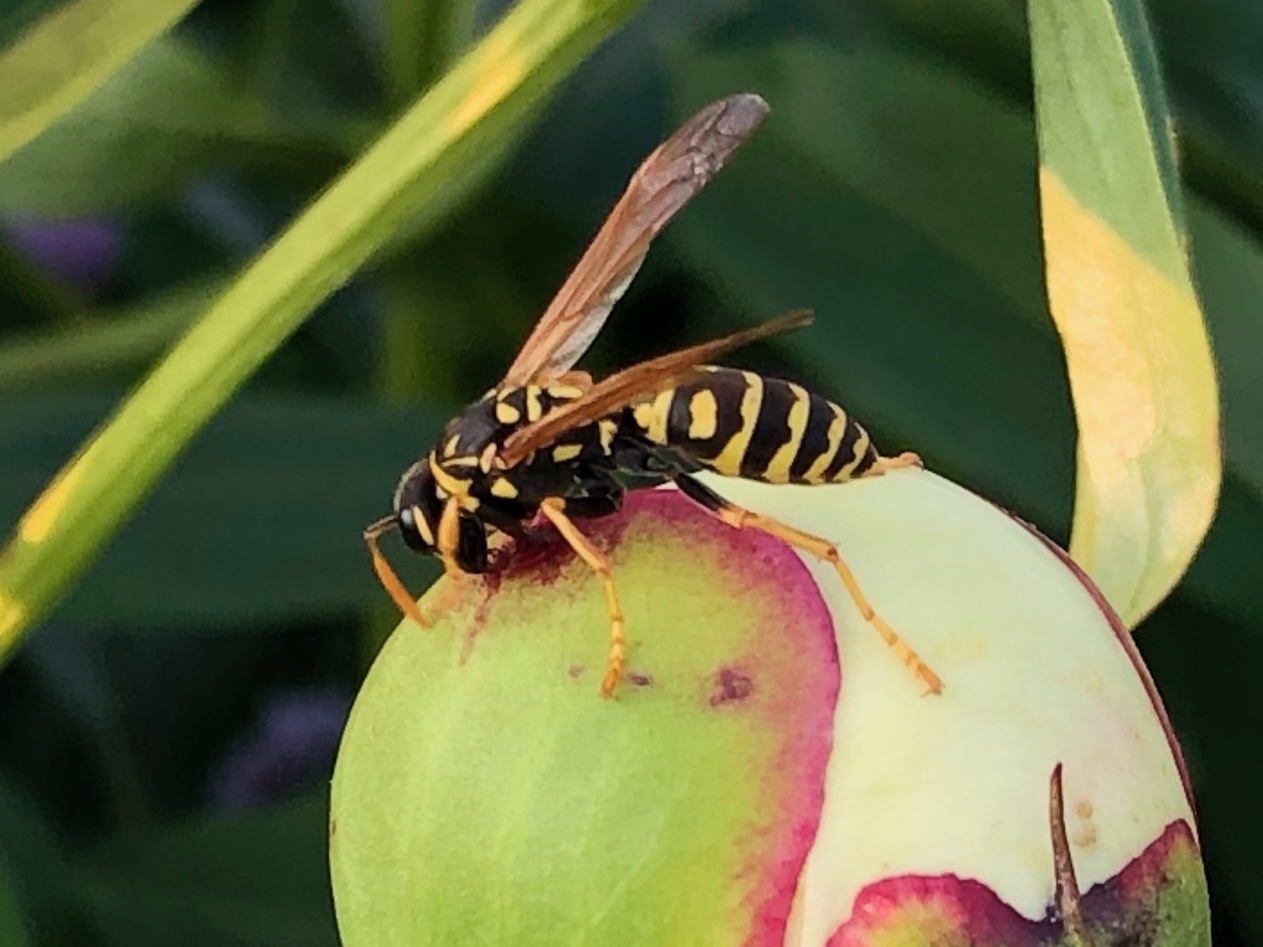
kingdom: Animalia
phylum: Arthropoda
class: Insecta
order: Hymenoptera
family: Eumenidae
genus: Polistes
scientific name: Polistes dominula
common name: Paper wasp
